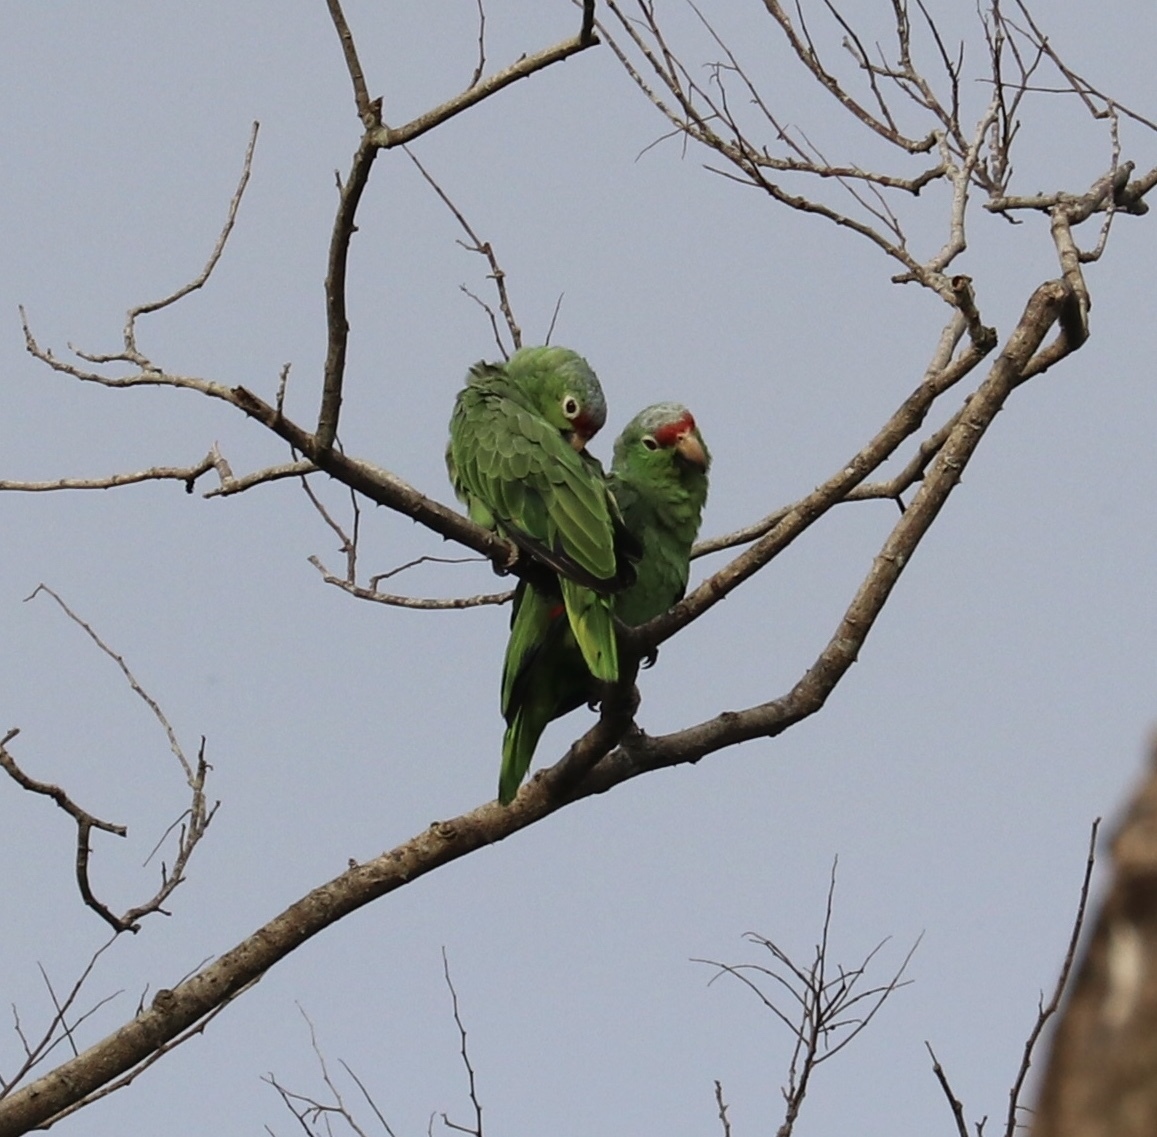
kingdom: Animalia
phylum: Chordata
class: Aves
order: Psittaciformes
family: Psittacidae
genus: Amazona
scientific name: Amazona autumnalis
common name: Red-lored amazon
